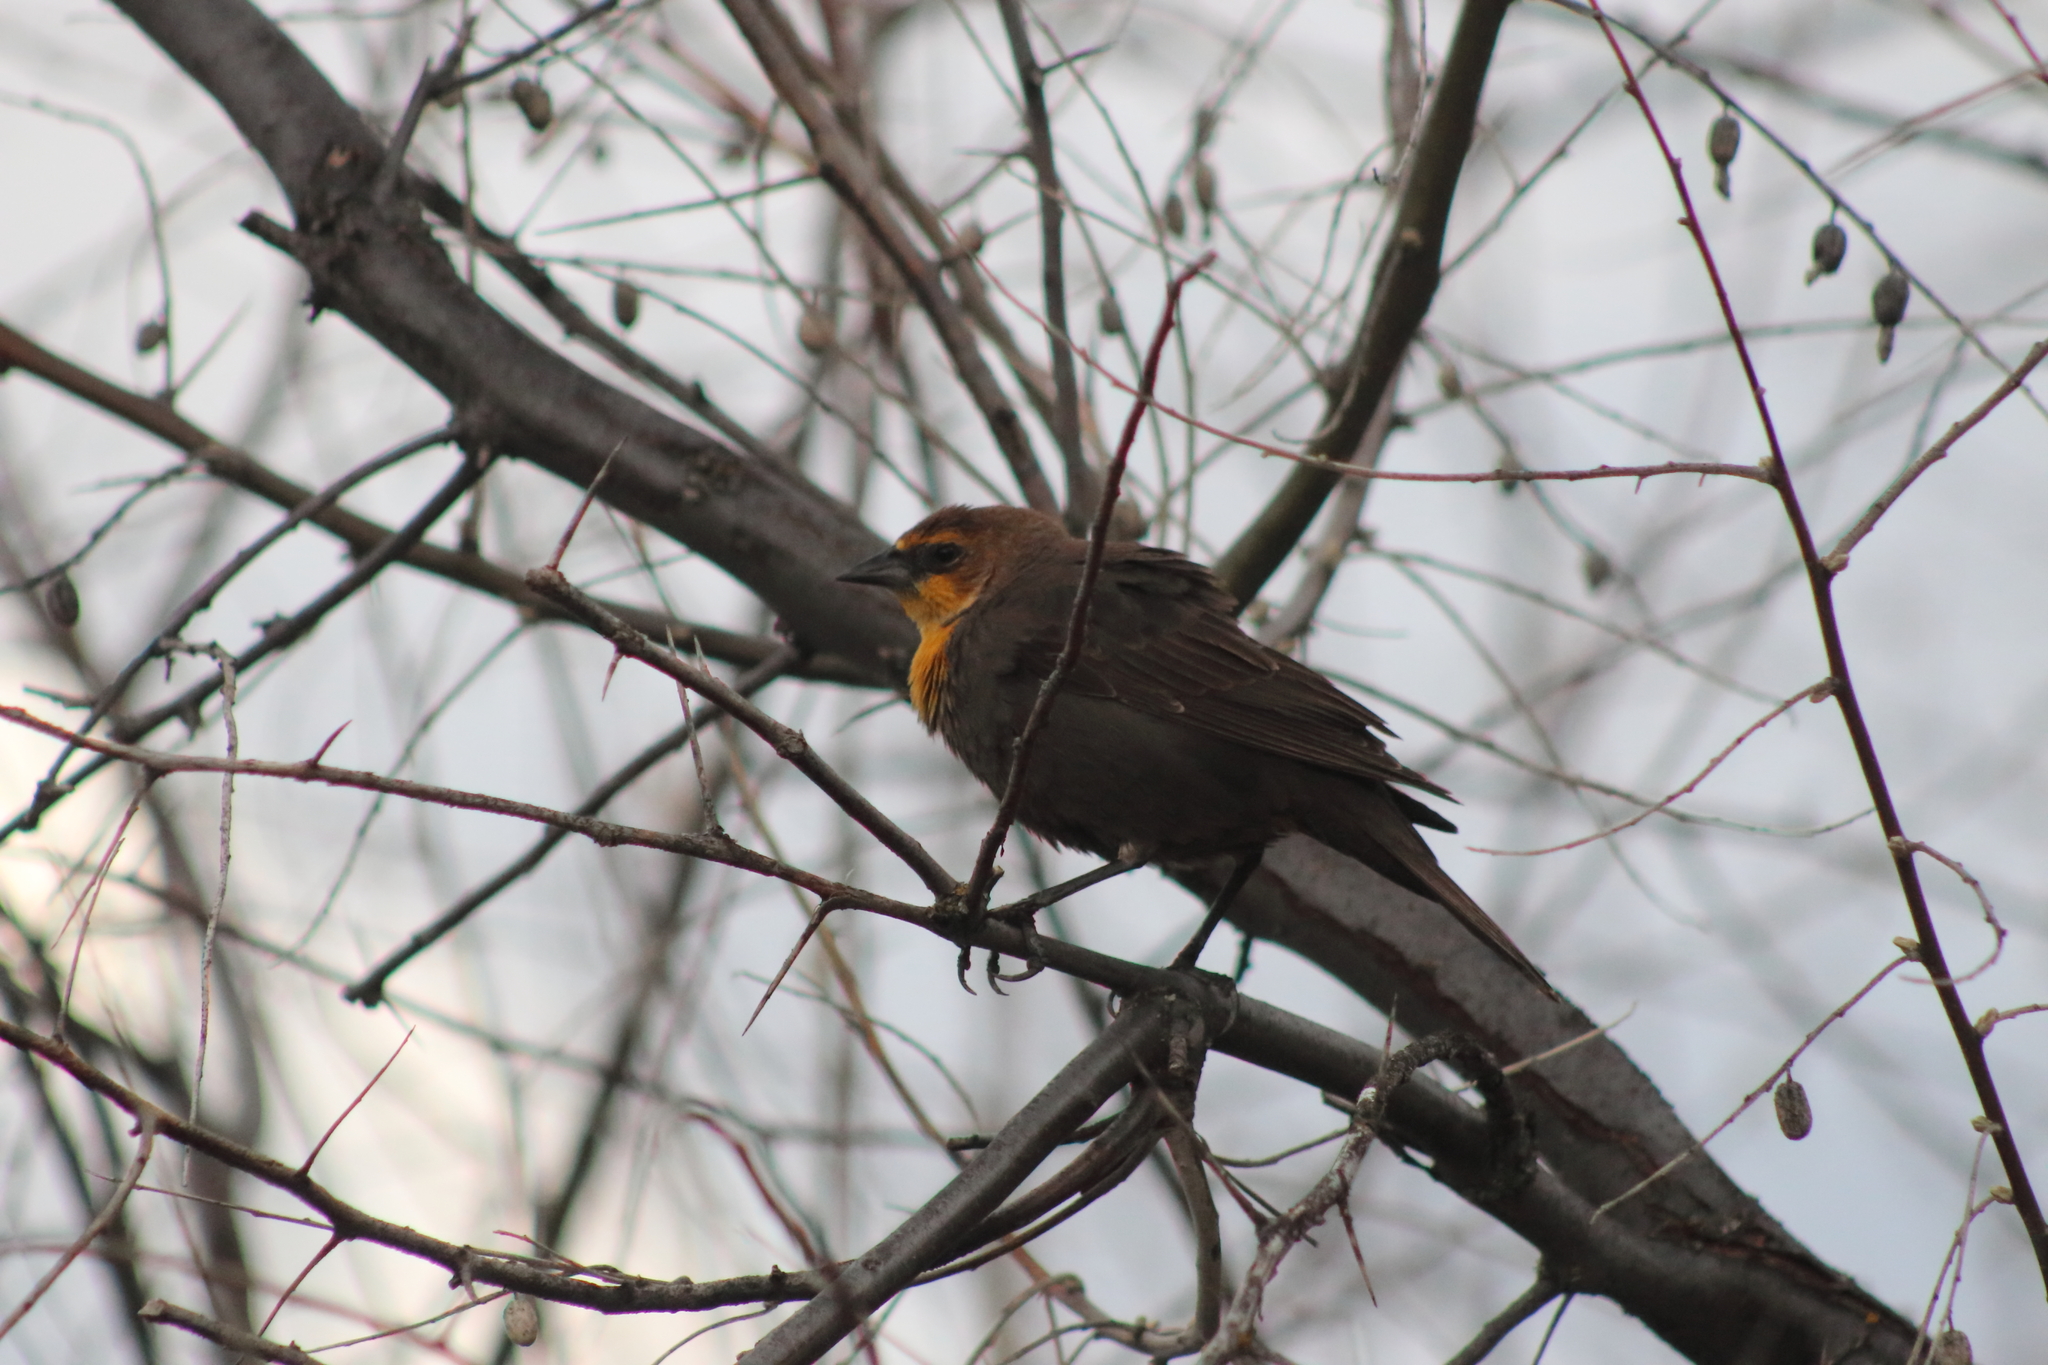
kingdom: Animalia
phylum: Chordata
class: Aves
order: Passeriformes
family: Icteridae
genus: Xanthocephalus
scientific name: Xanthocephalus xanthocephalus
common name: Yellow-headed blackbird
